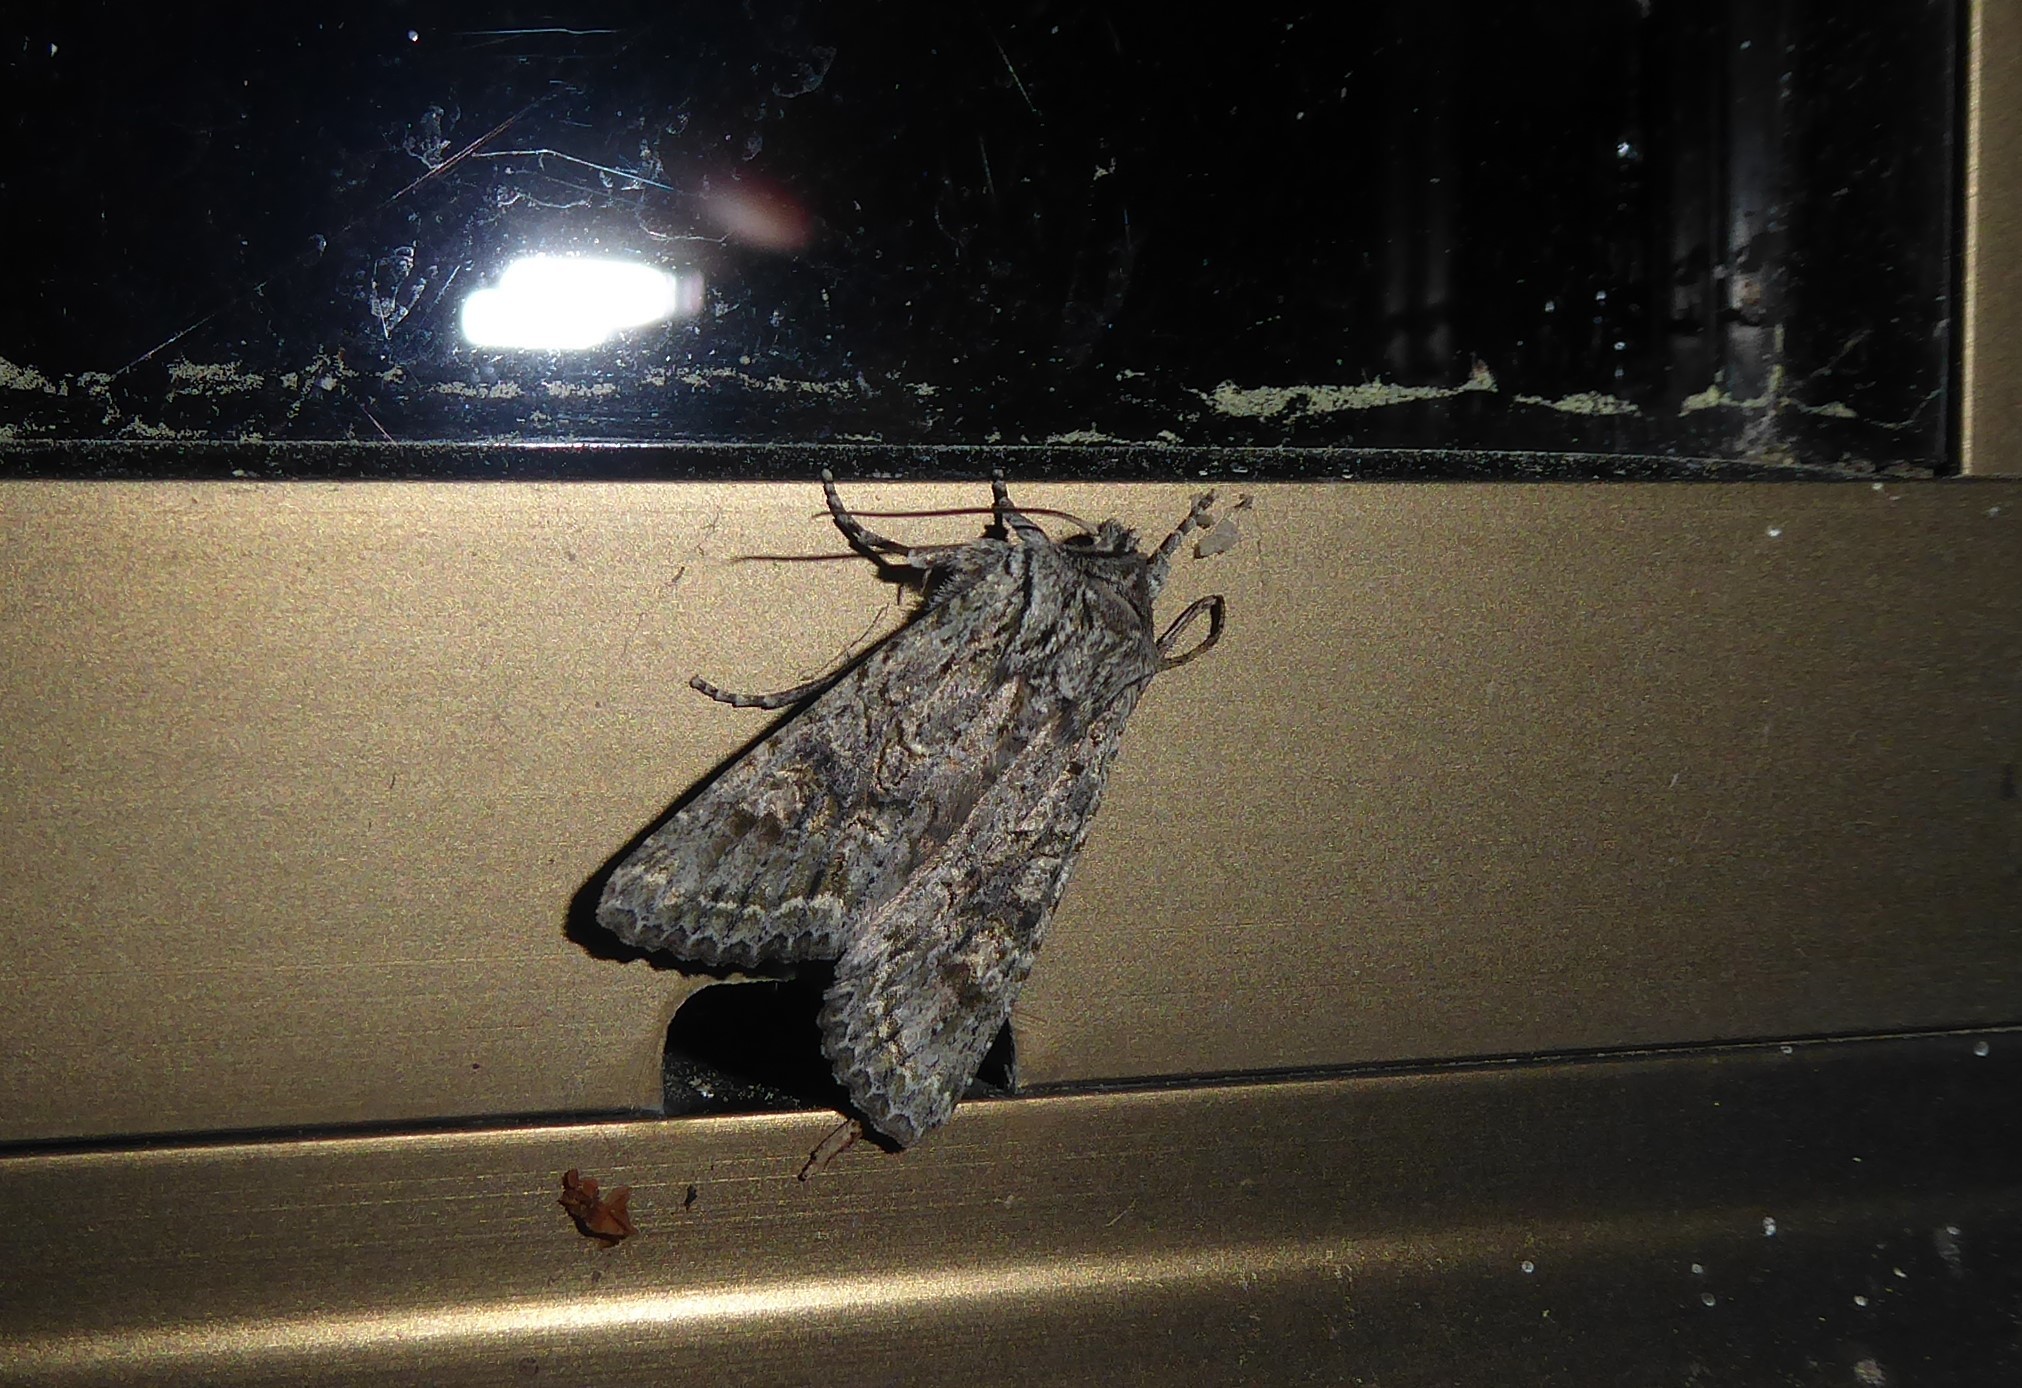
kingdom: Animalia
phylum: Arthropoda
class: Insecta
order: Lepidoptera
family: Noctuidae
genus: Ichneutica
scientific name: Ichneutica mutans
